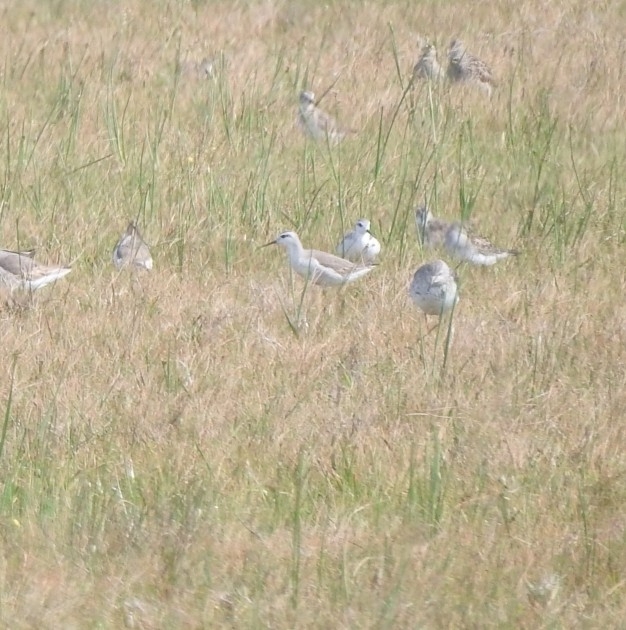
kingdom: Animalia
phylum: Chordata
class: Aves
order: Charadriiformes
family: Scolopacidae
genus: Phalaropus
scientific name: Phalaropus tricolor
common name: Wilson's phalarope
